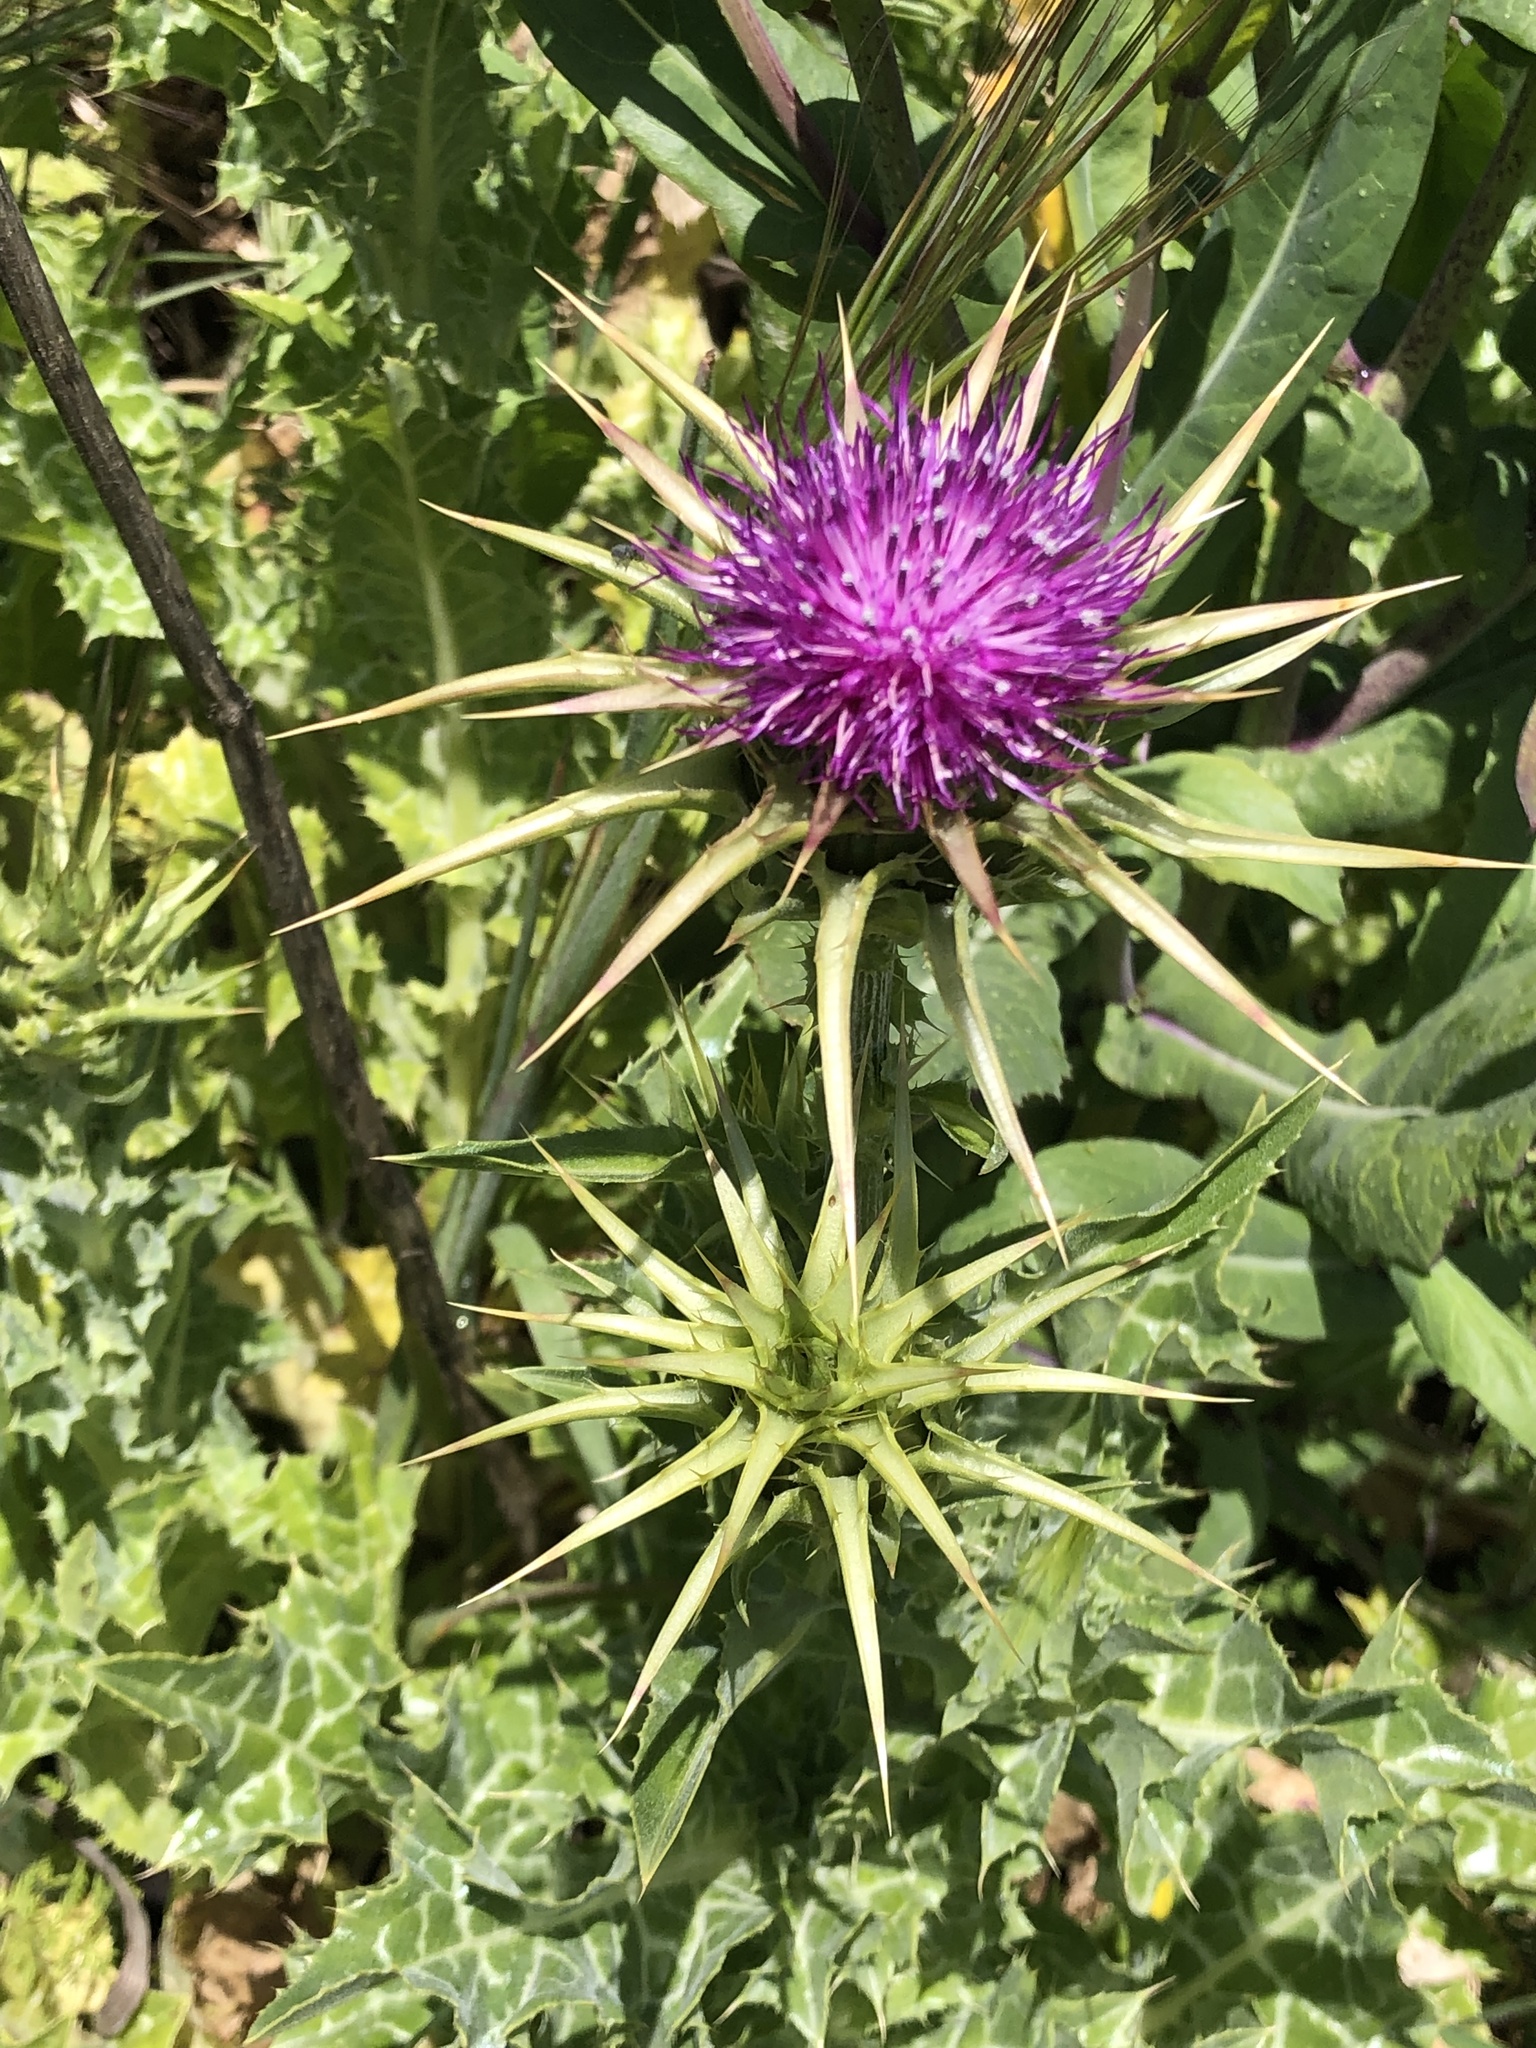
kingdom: Plantae
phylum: Tracheophyta
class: Magnoliopsida
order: Asterales
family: Asteraceae
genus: Silybum
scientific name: Silybum marianum
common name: Milk thistle
